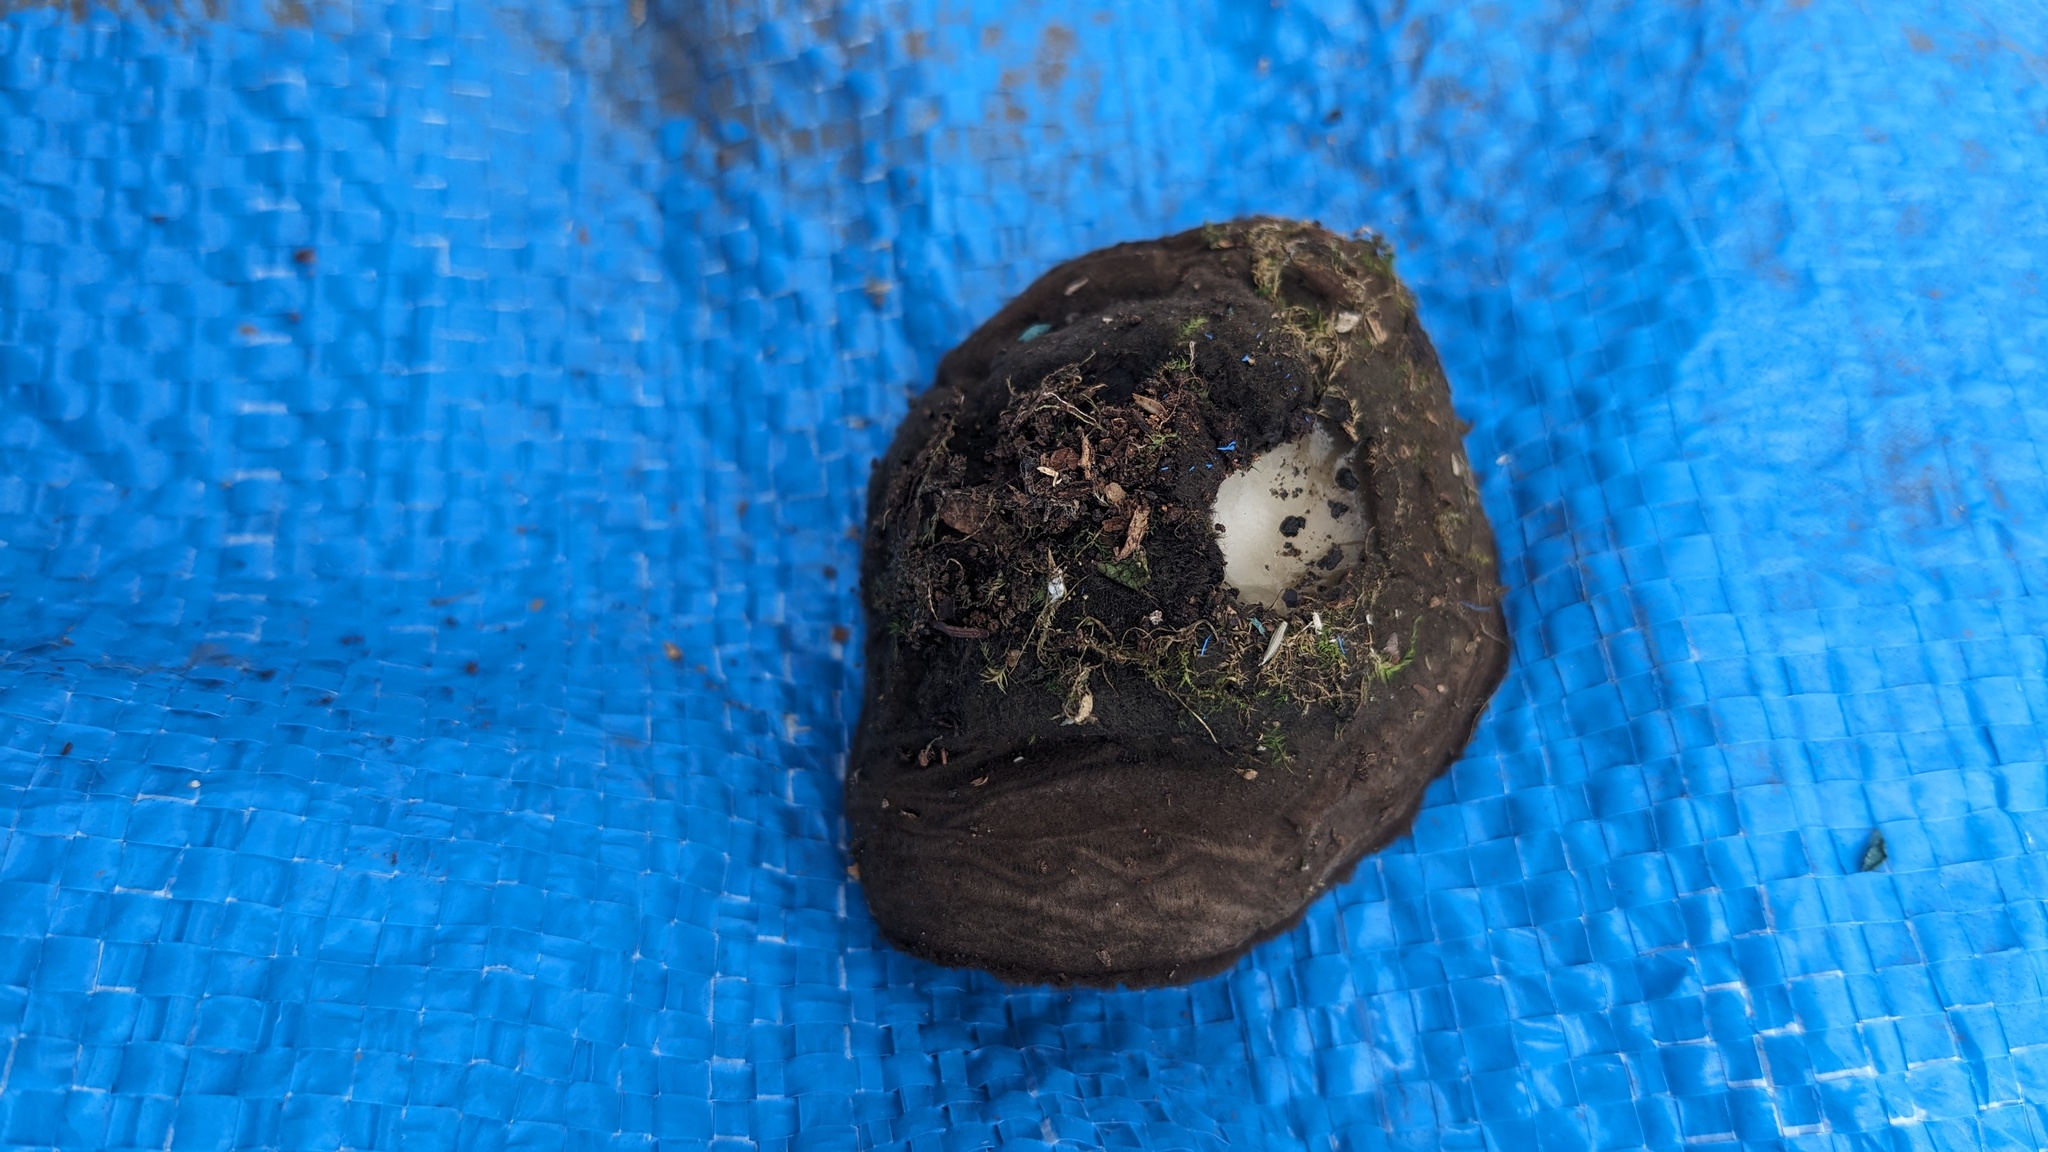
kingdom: Fungi
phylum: Ascomycota
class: Pezizomycetes
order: Pezizales
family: Pyronemataceae
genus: Trichaleurina
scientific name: Trichaleurina tenuispora
